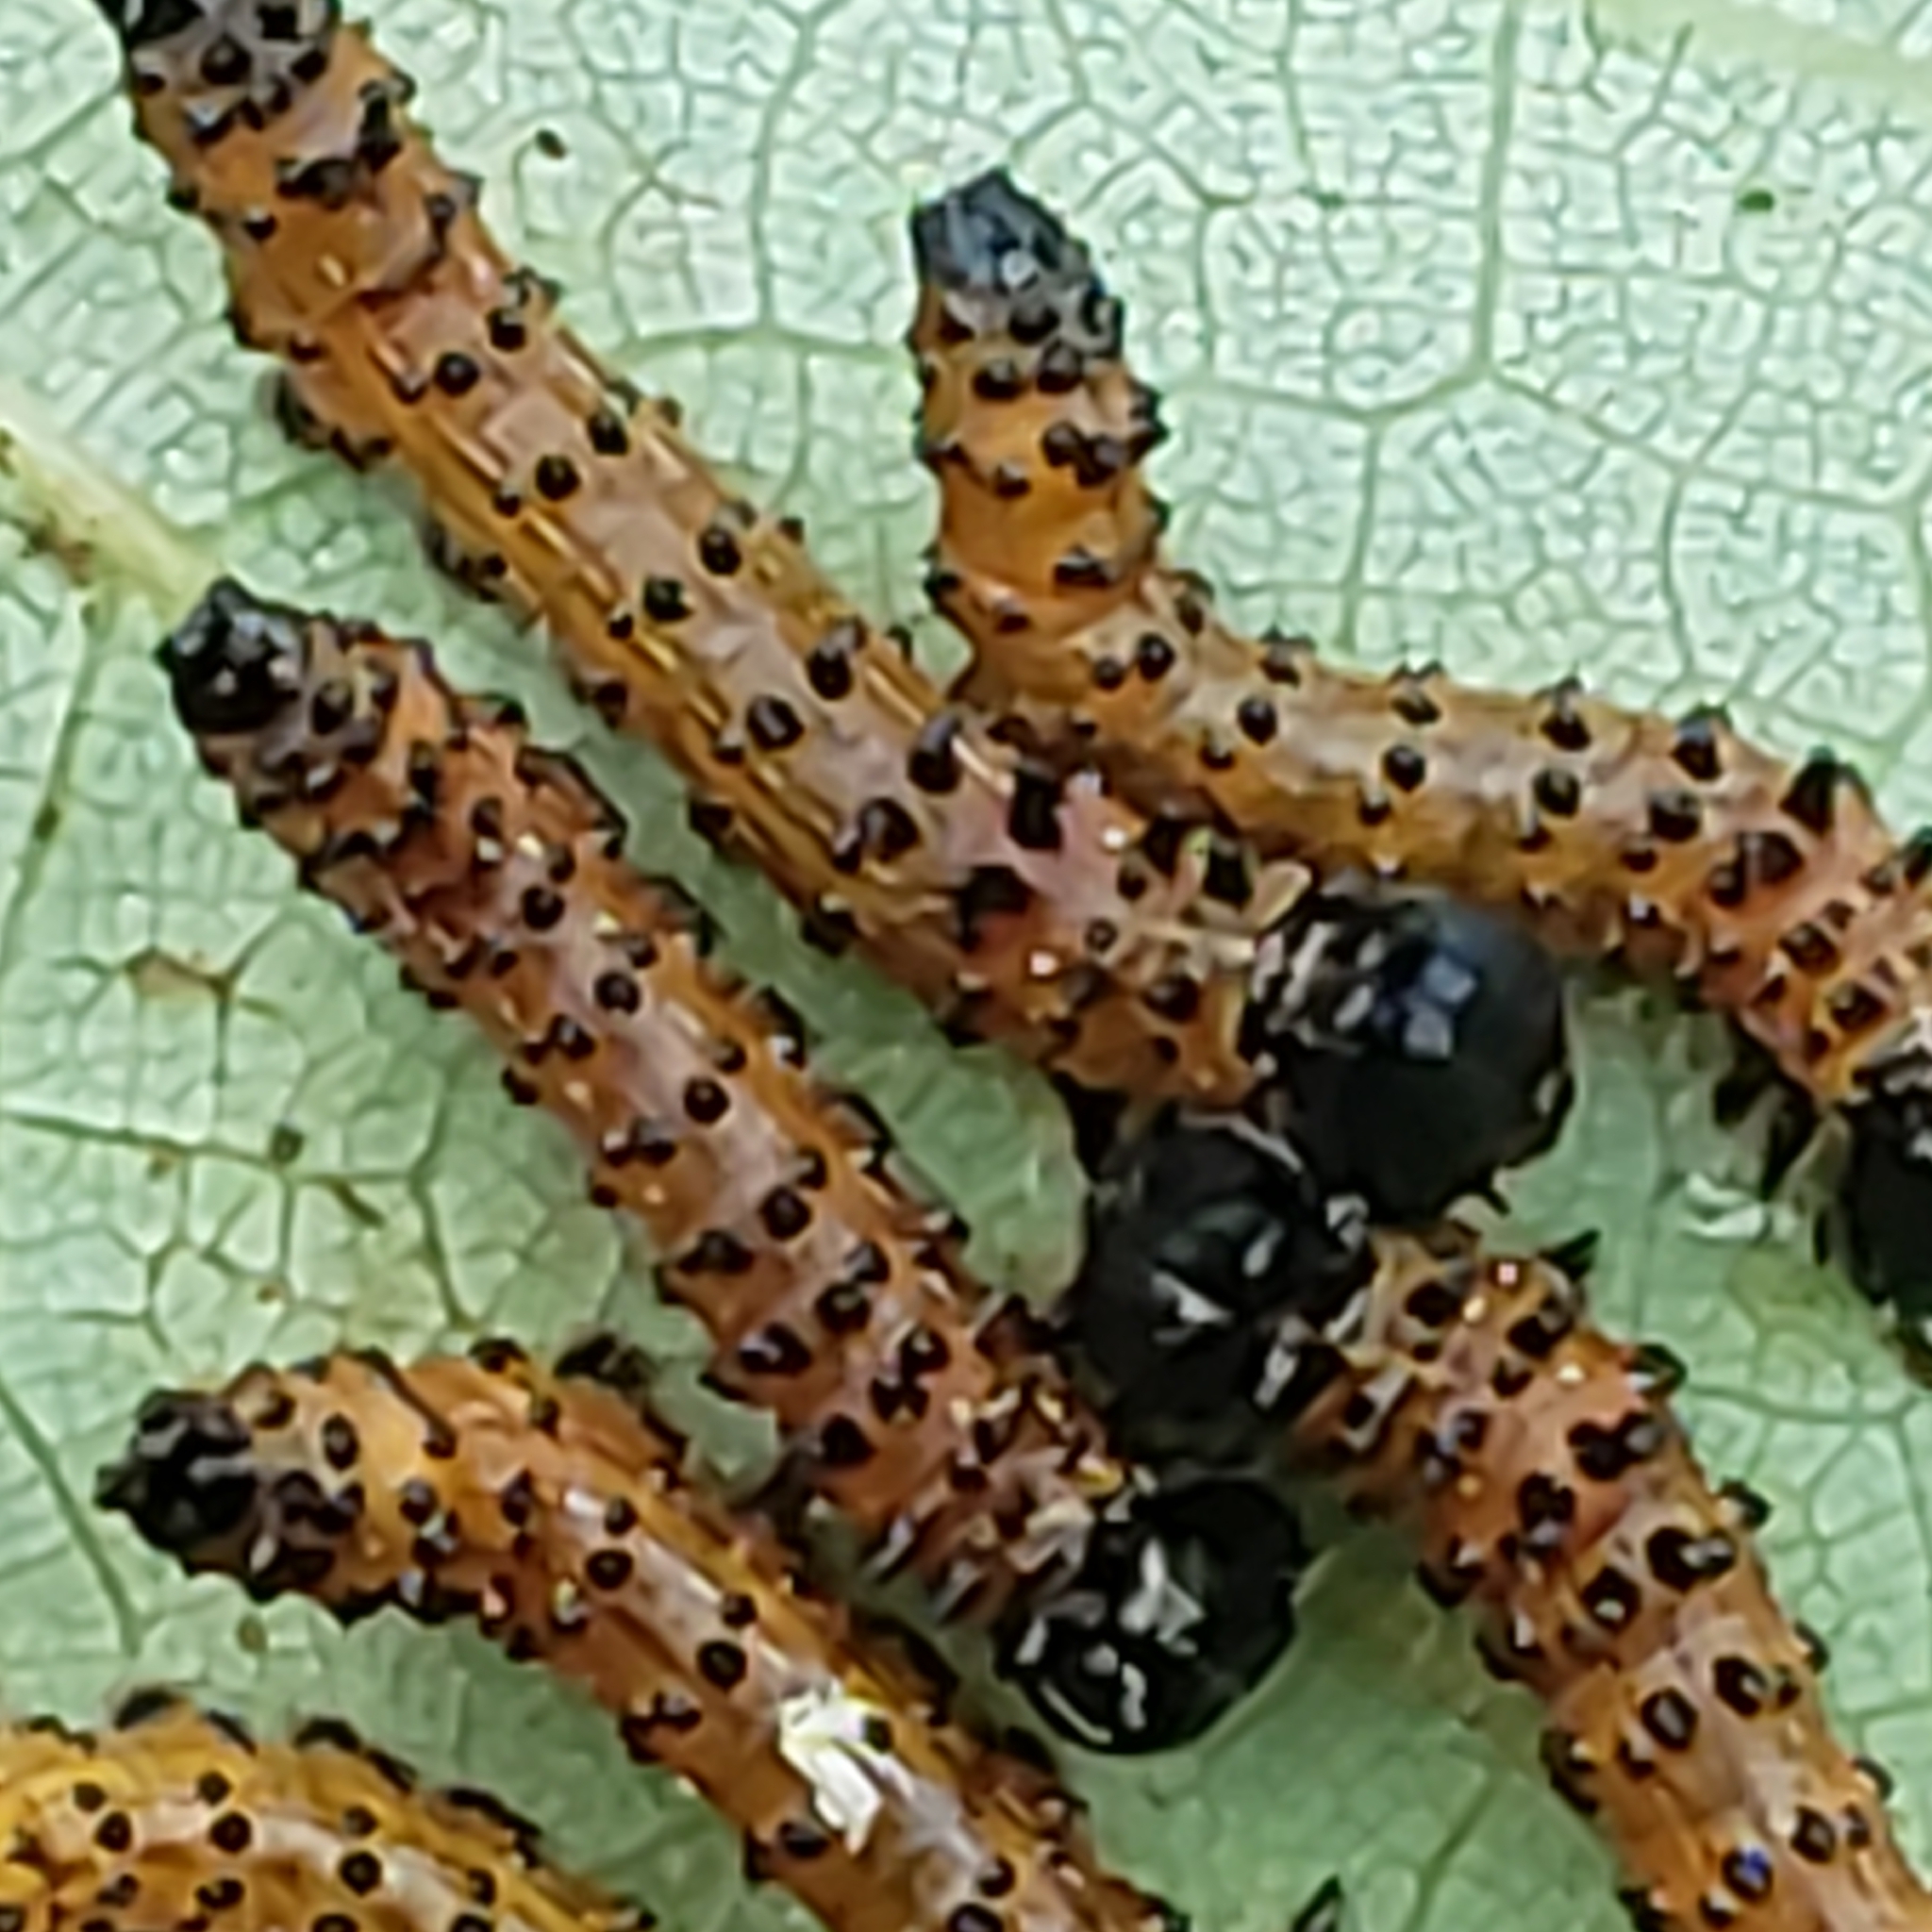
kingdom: Animalia
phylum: Arthropoda
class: Insecta
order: Lepidoptera
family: Notodontidae
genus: Schizura
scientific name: Schizura
